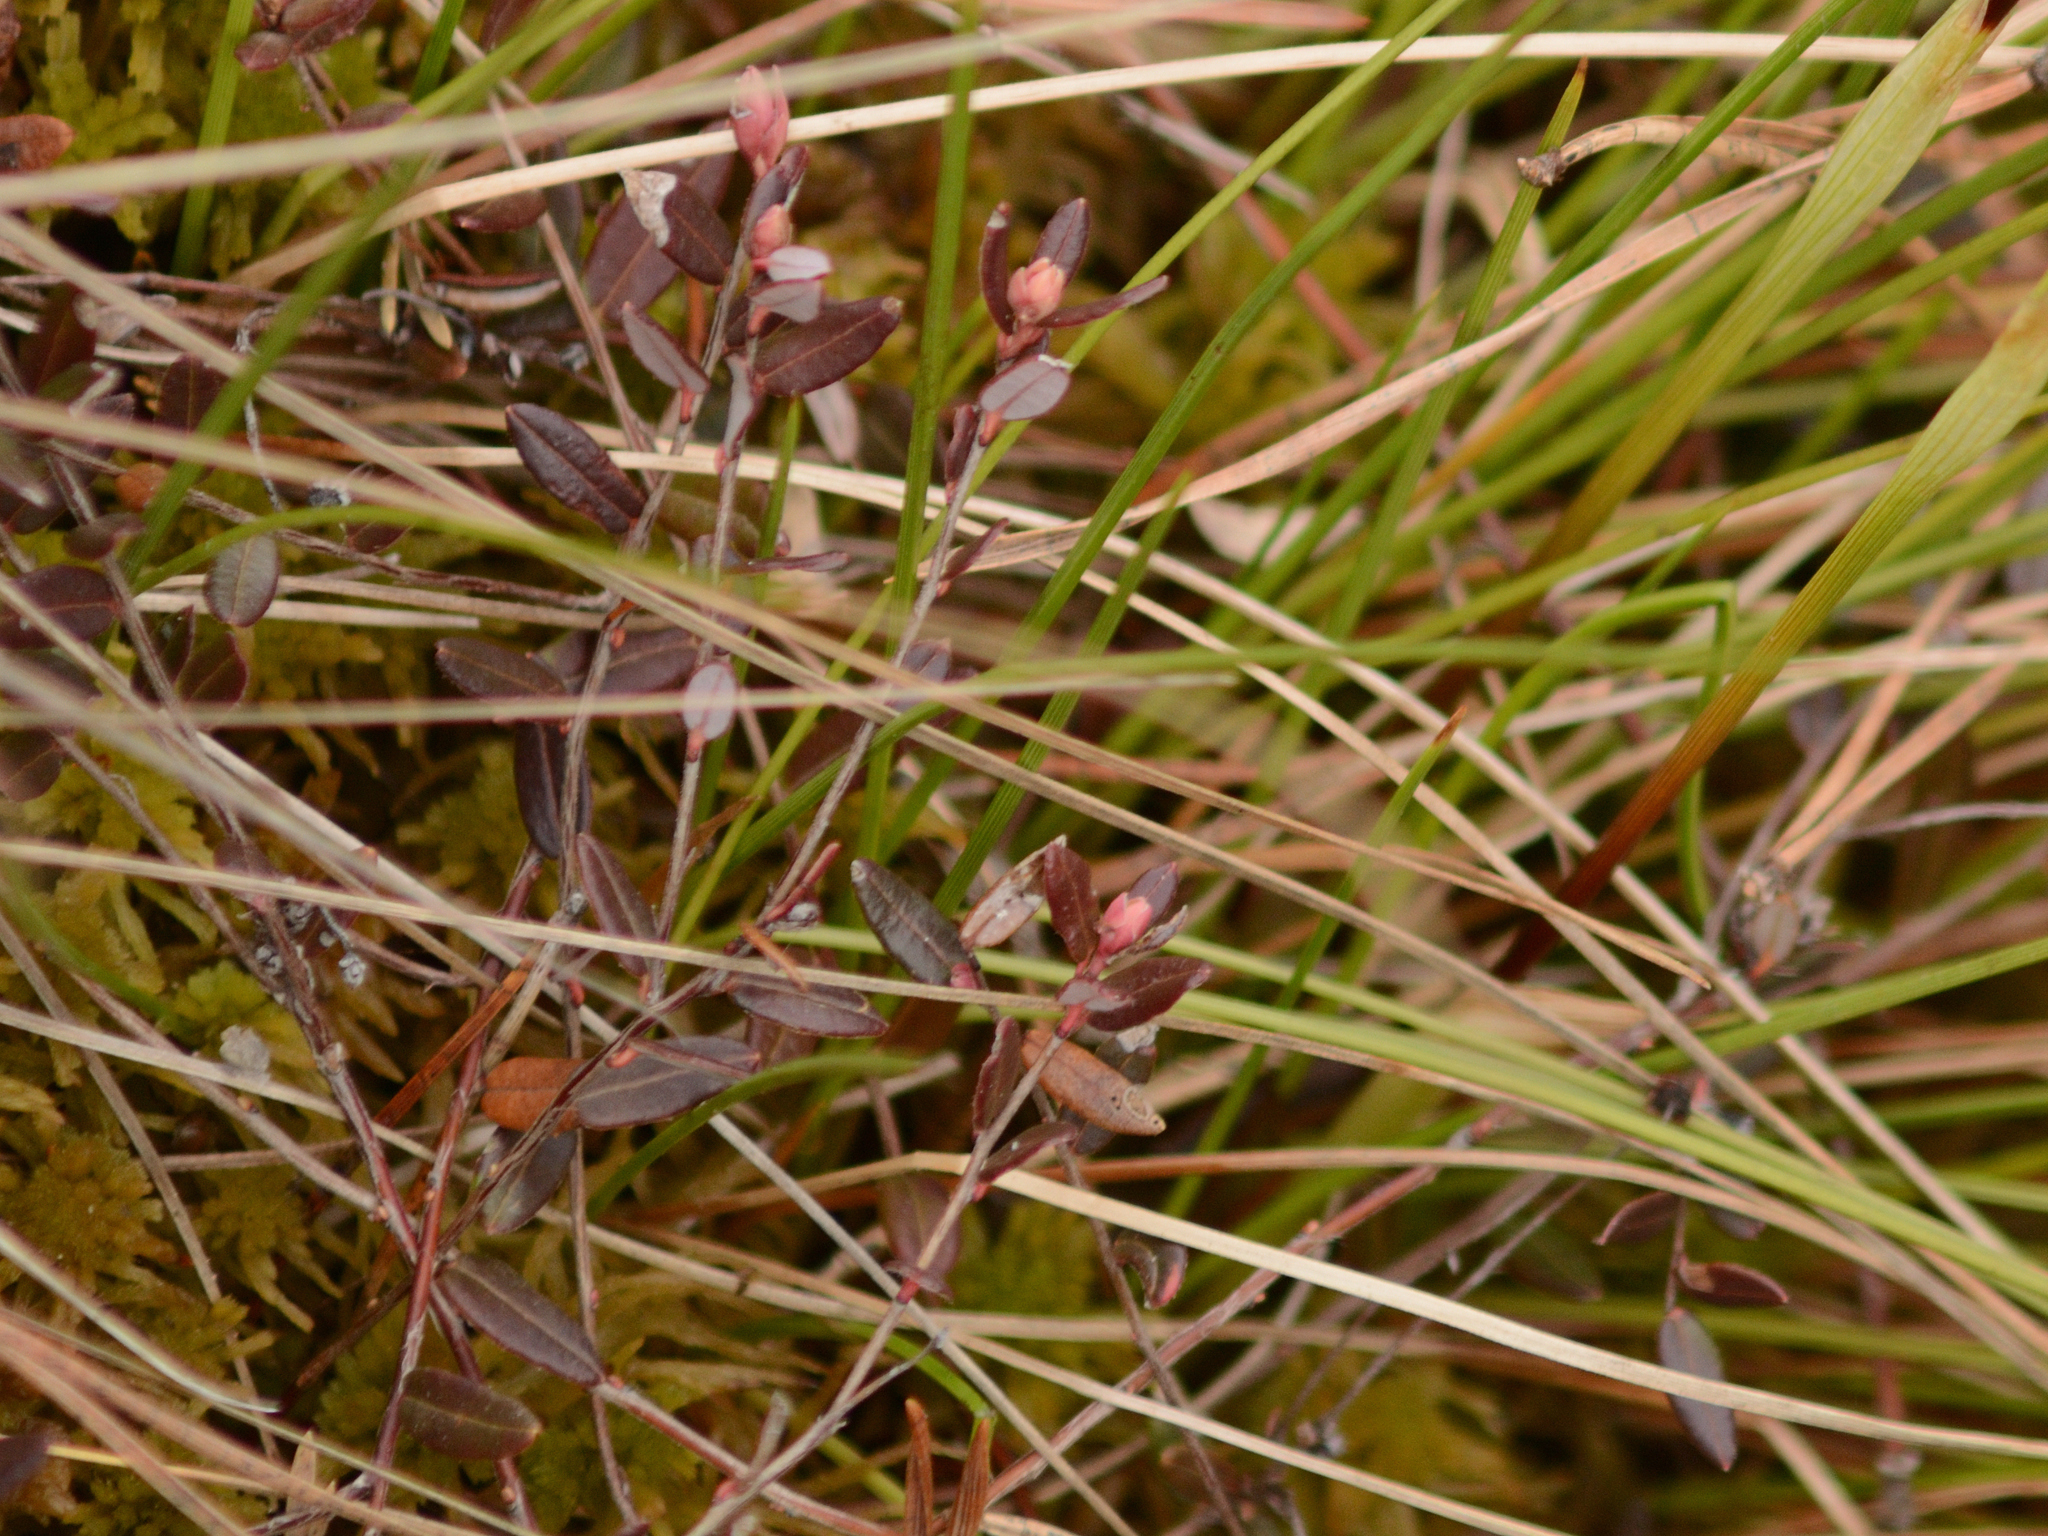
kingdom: Plantae
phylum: Tracheophyta
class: Magnoliopsida
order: Ericales
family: Ericaceae
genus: Vaccinium
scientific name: Vaccinium oxycoccos
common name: Cranberry
